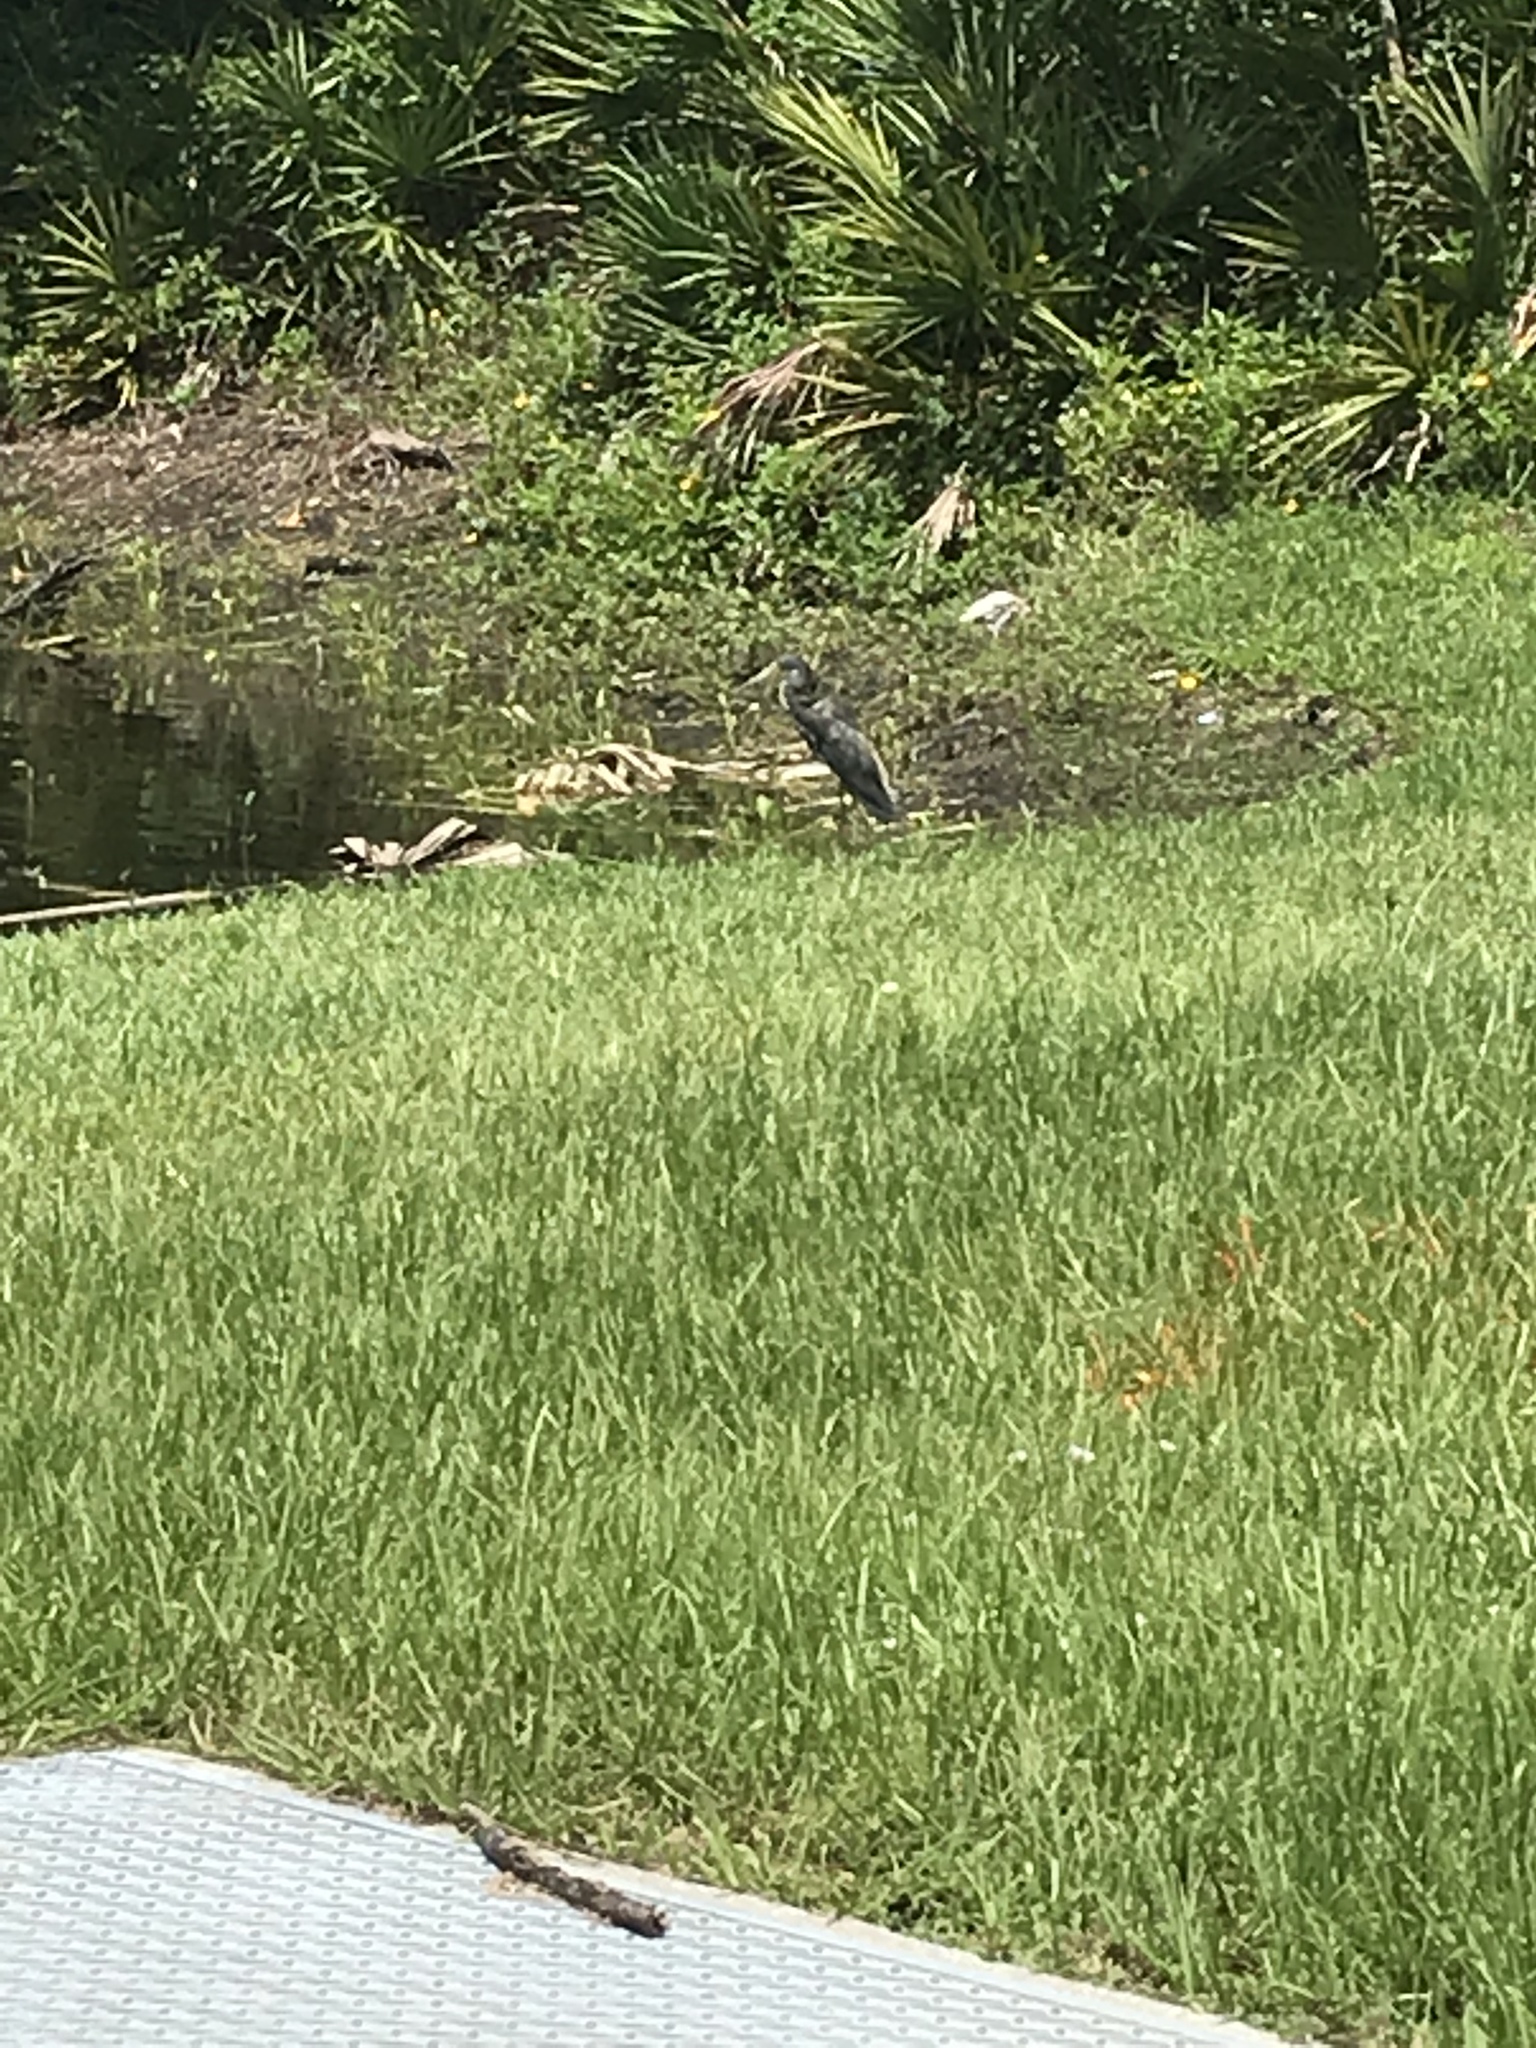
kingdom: Animalia
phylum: Chordata
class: Aves
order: Pelecaniformes
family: Ardeidae
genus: Egretta
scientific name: Egretta tricolor
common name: Tricolored heron
